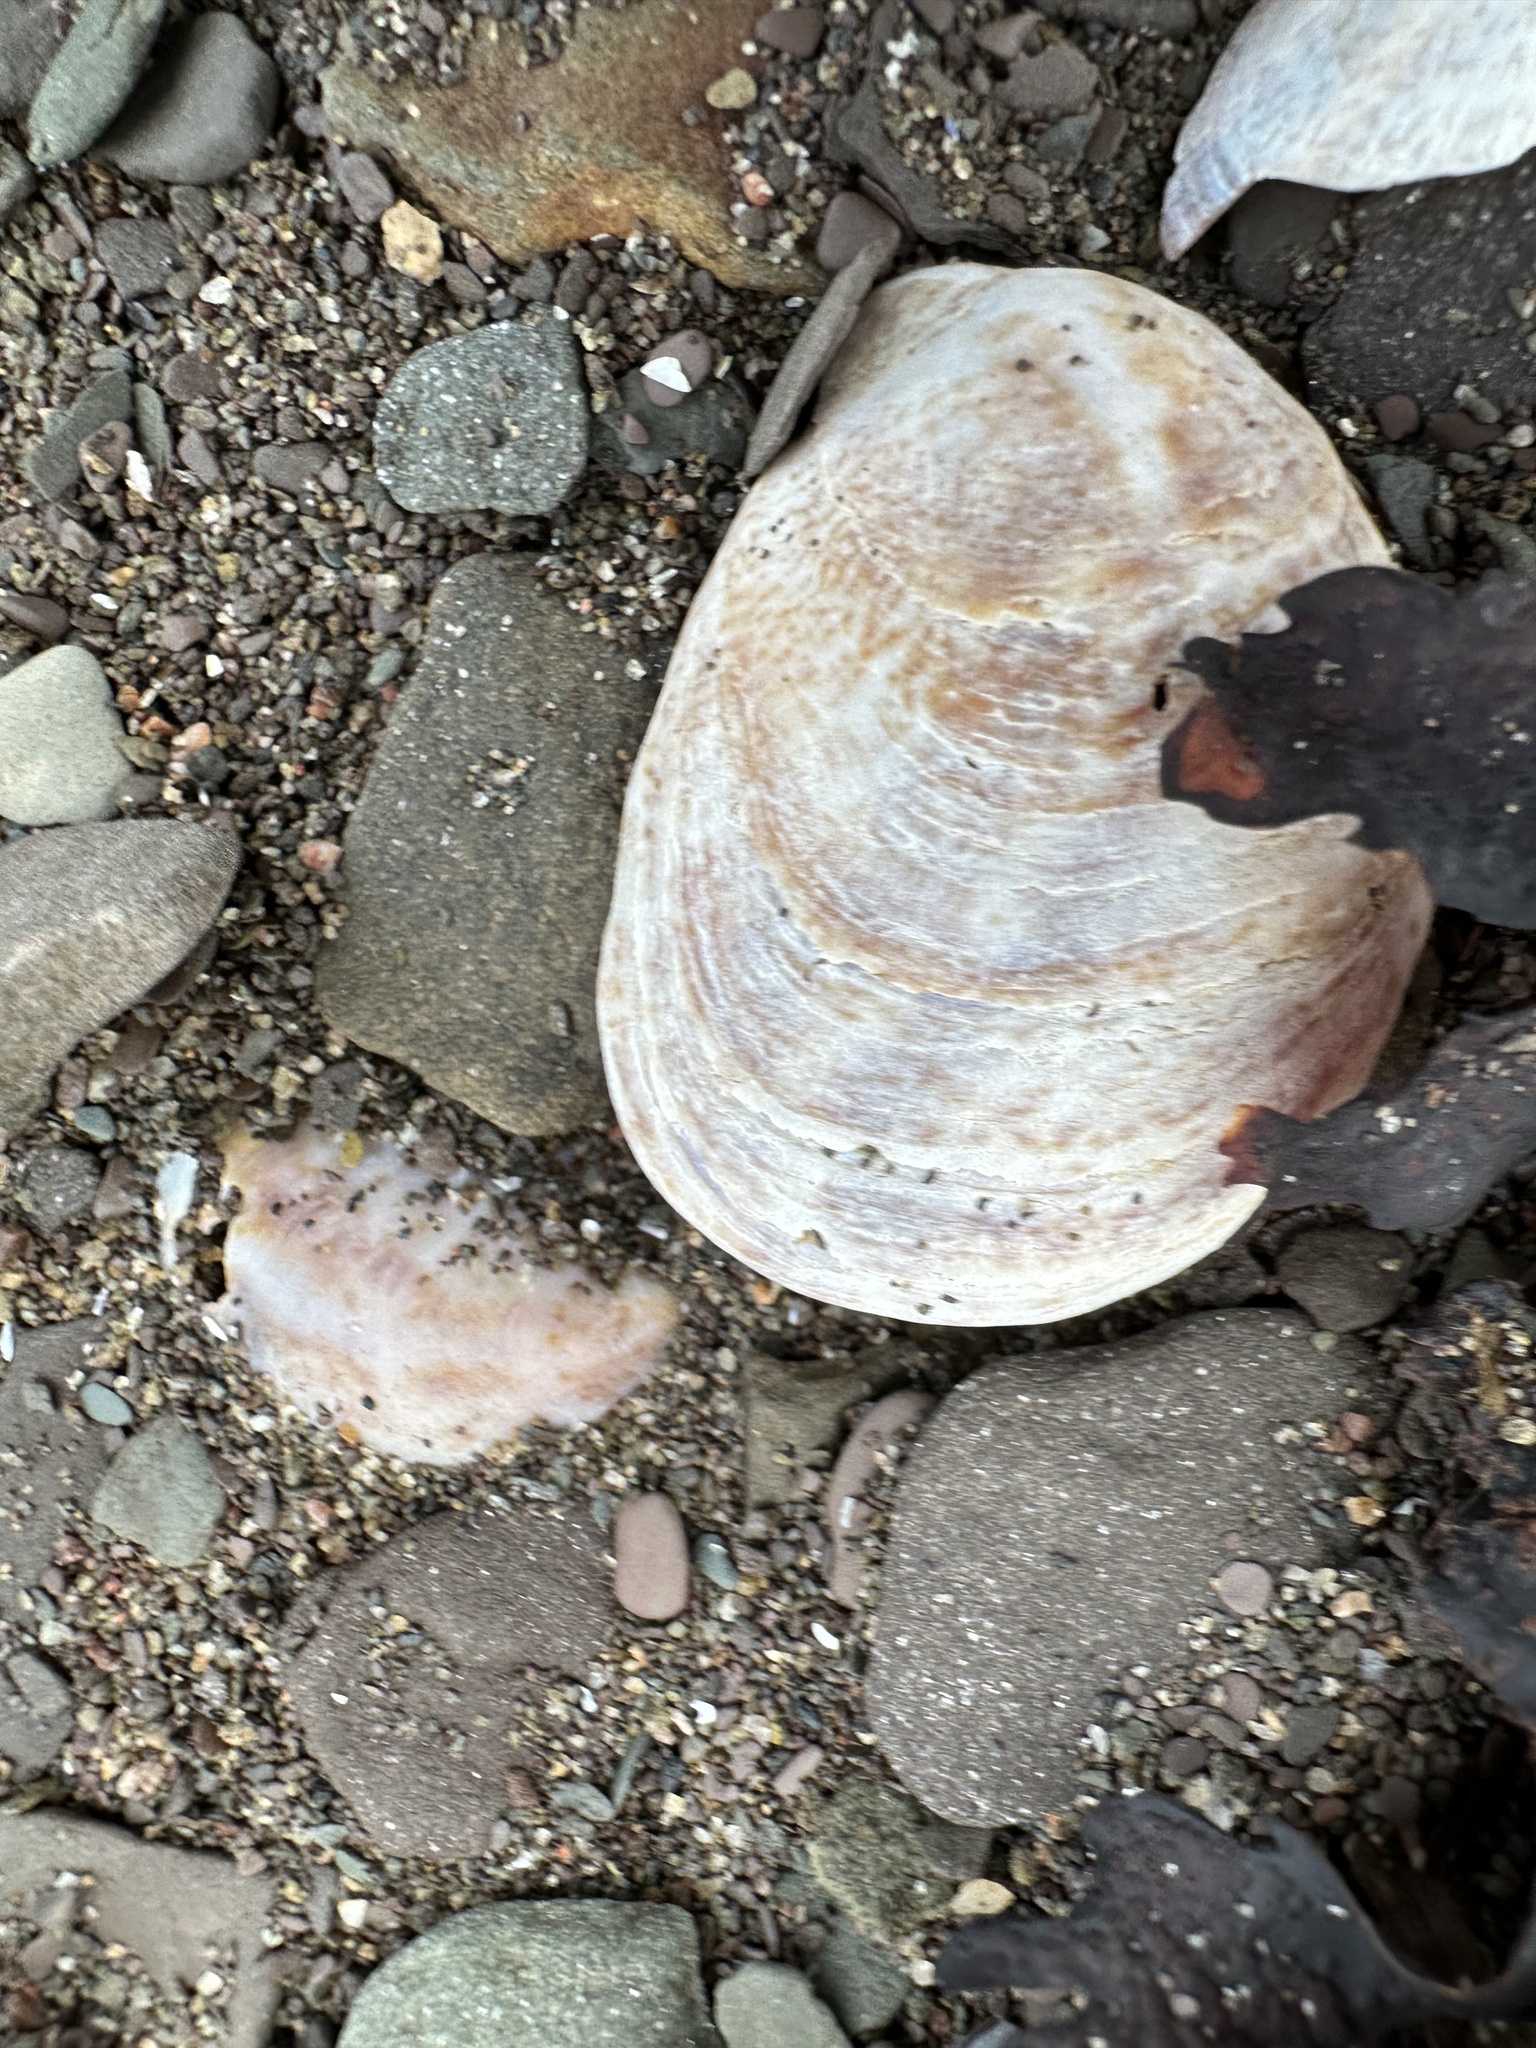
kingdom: Animalia
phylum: Mollusca
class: Gastropoda
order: Littorinimorpha
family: Calyptraeidae
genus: Crepidula
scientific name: Crepidula fornicata
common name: Slipper limpet
